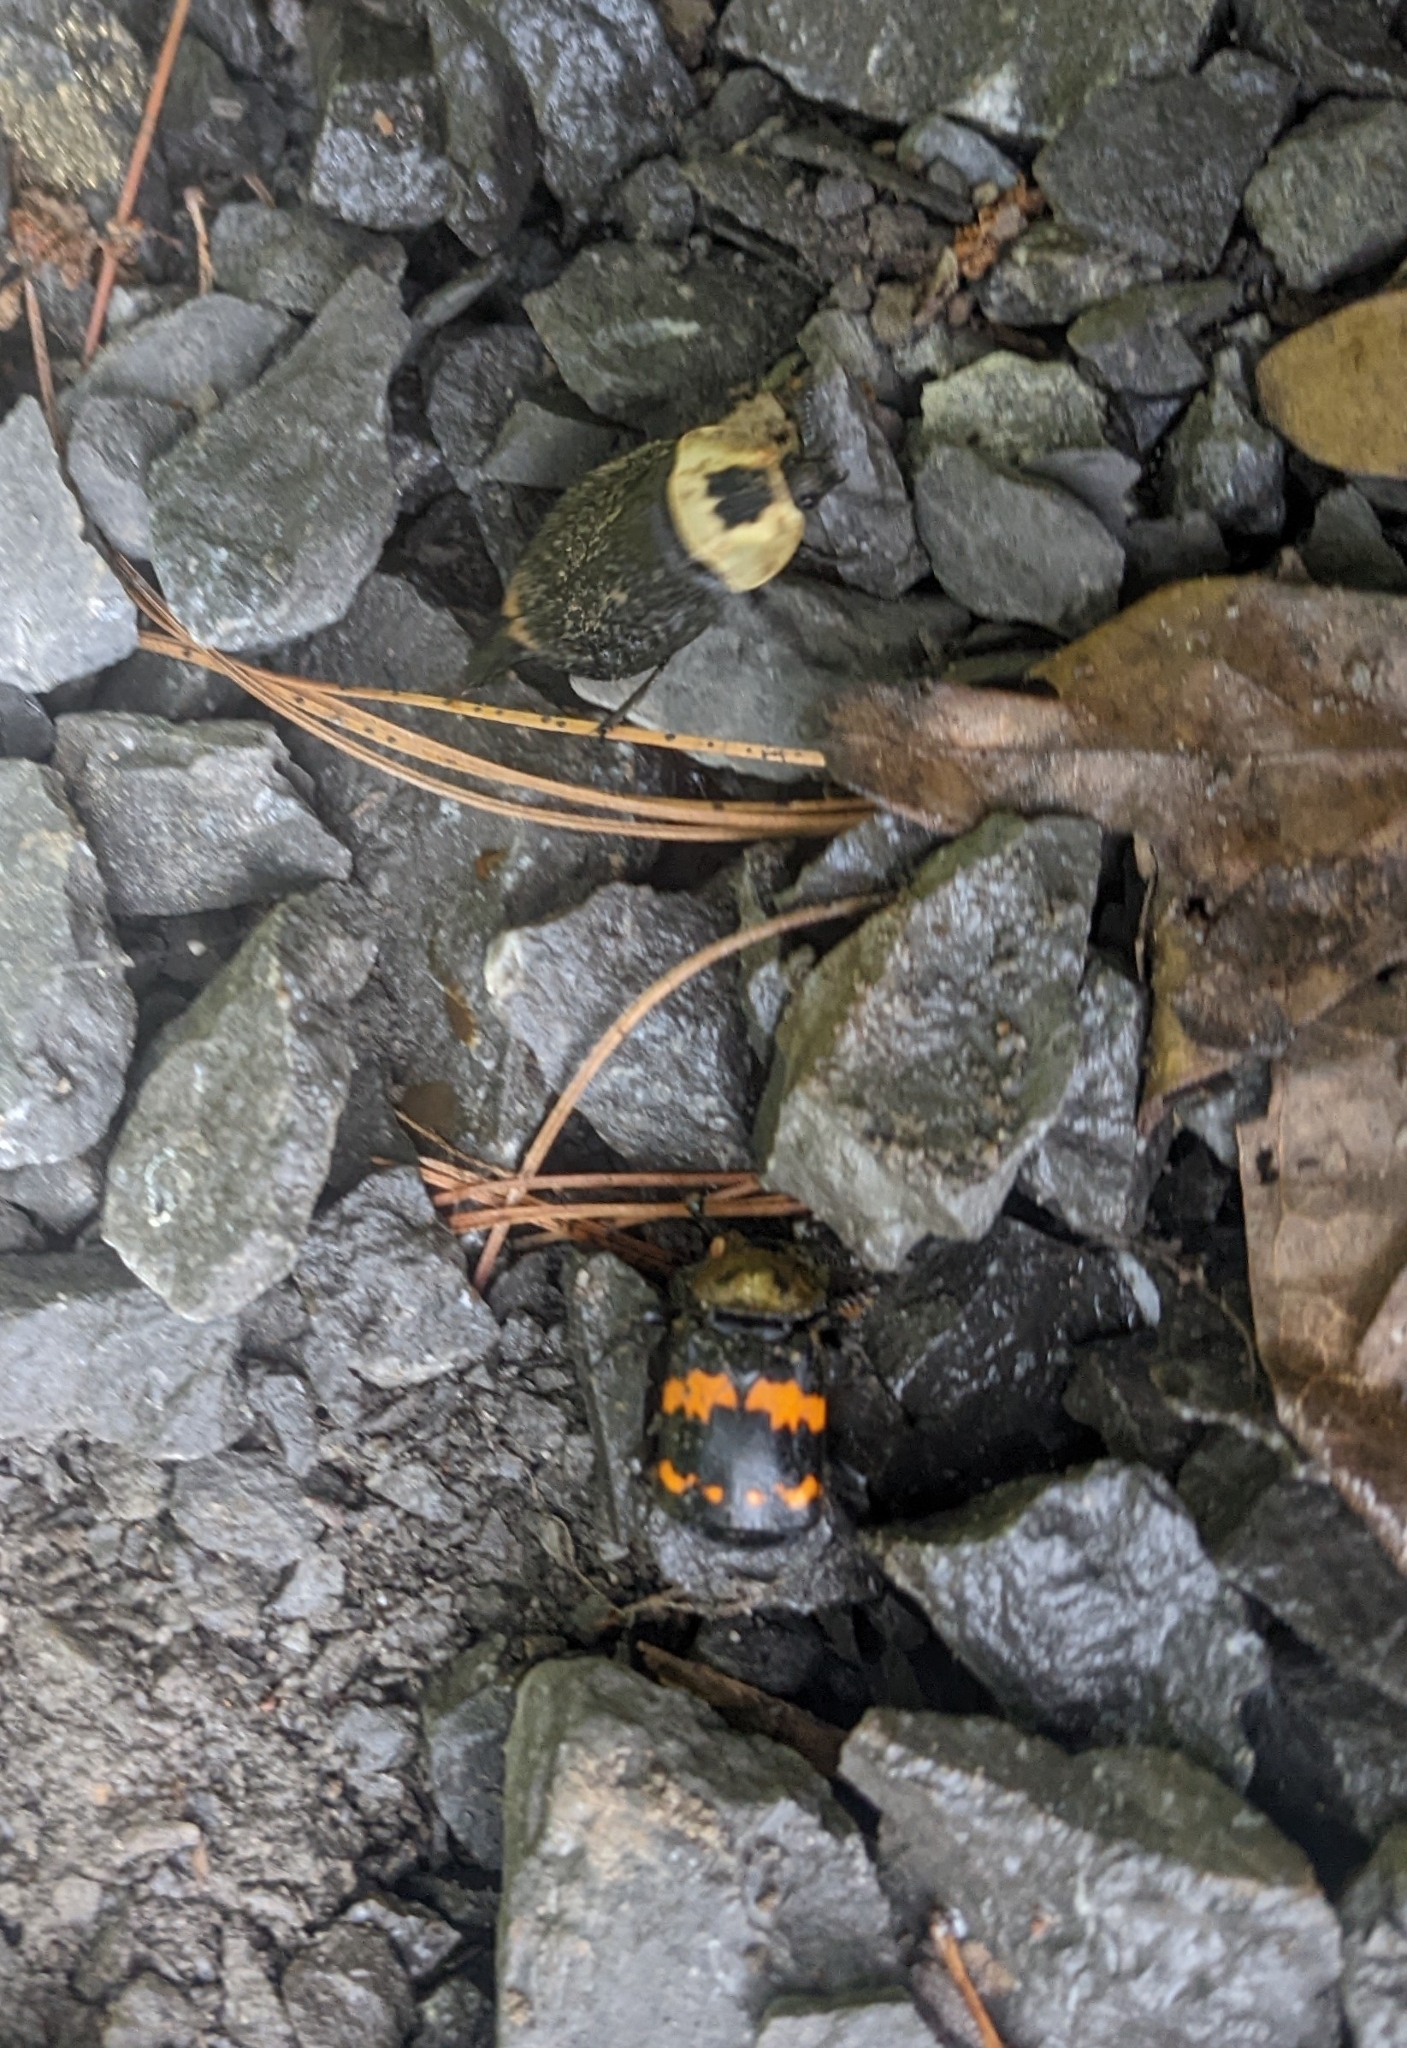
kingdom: Animalia
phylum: Arthropoda
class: Insecta
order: Coleoptera
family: Staphylinidae
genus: Nicrophorus
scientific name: Nicrophorus tomentosus
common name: Tomentose burying beetle
